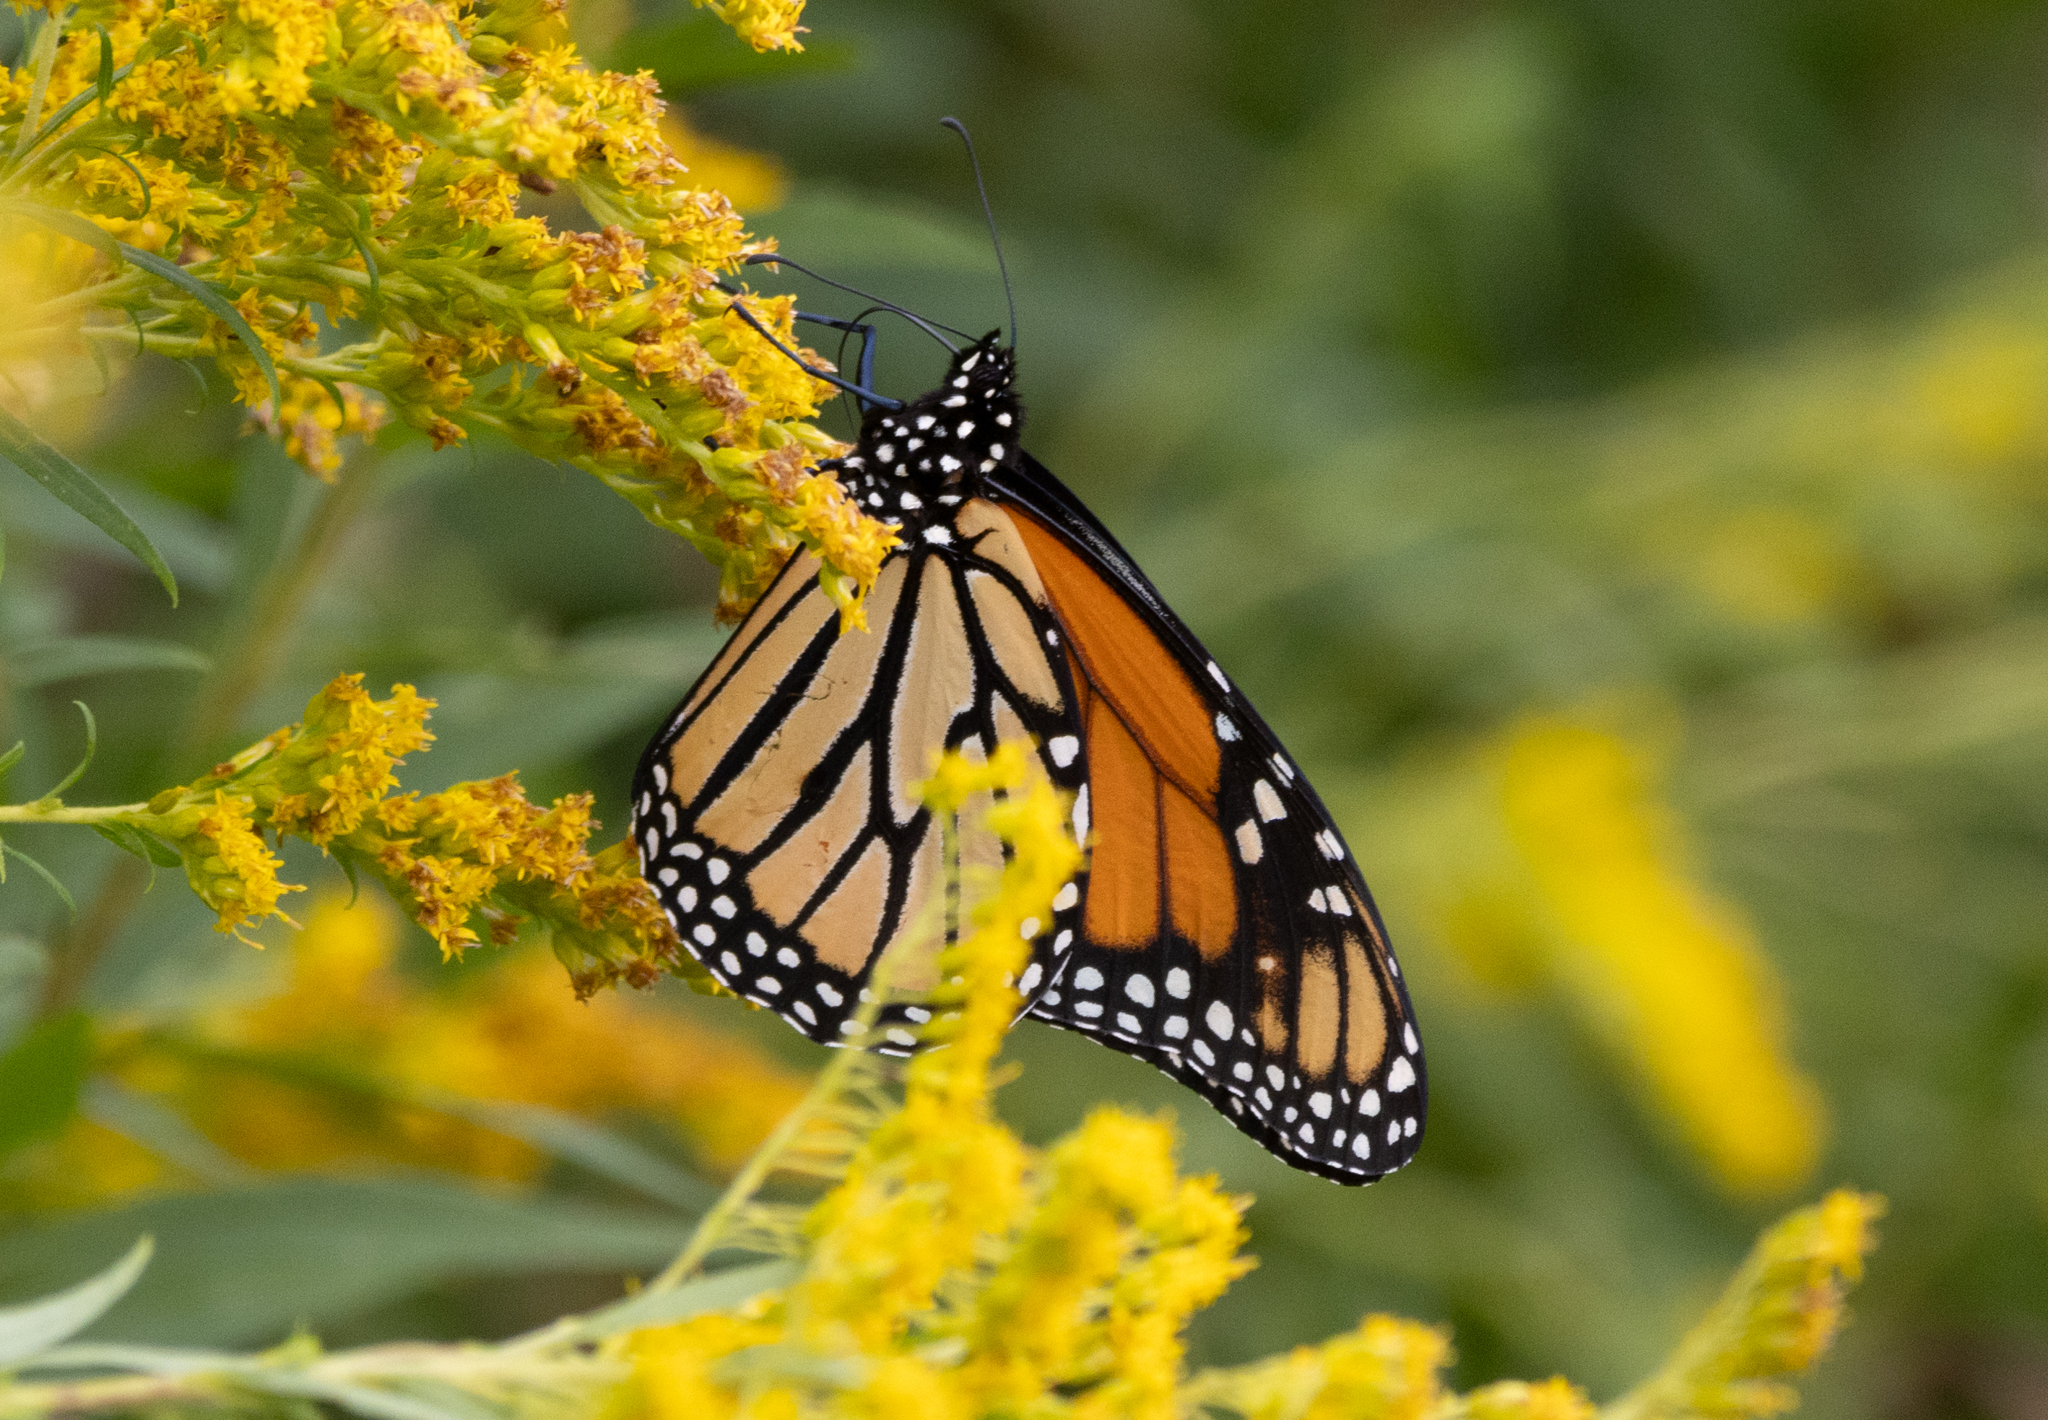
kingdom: Animalia
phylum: Arthropoda
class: Insecta
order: Lepidoptera
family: Nymphalidae
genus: Danaus
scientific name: Danaus plexippus
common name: Monarch
